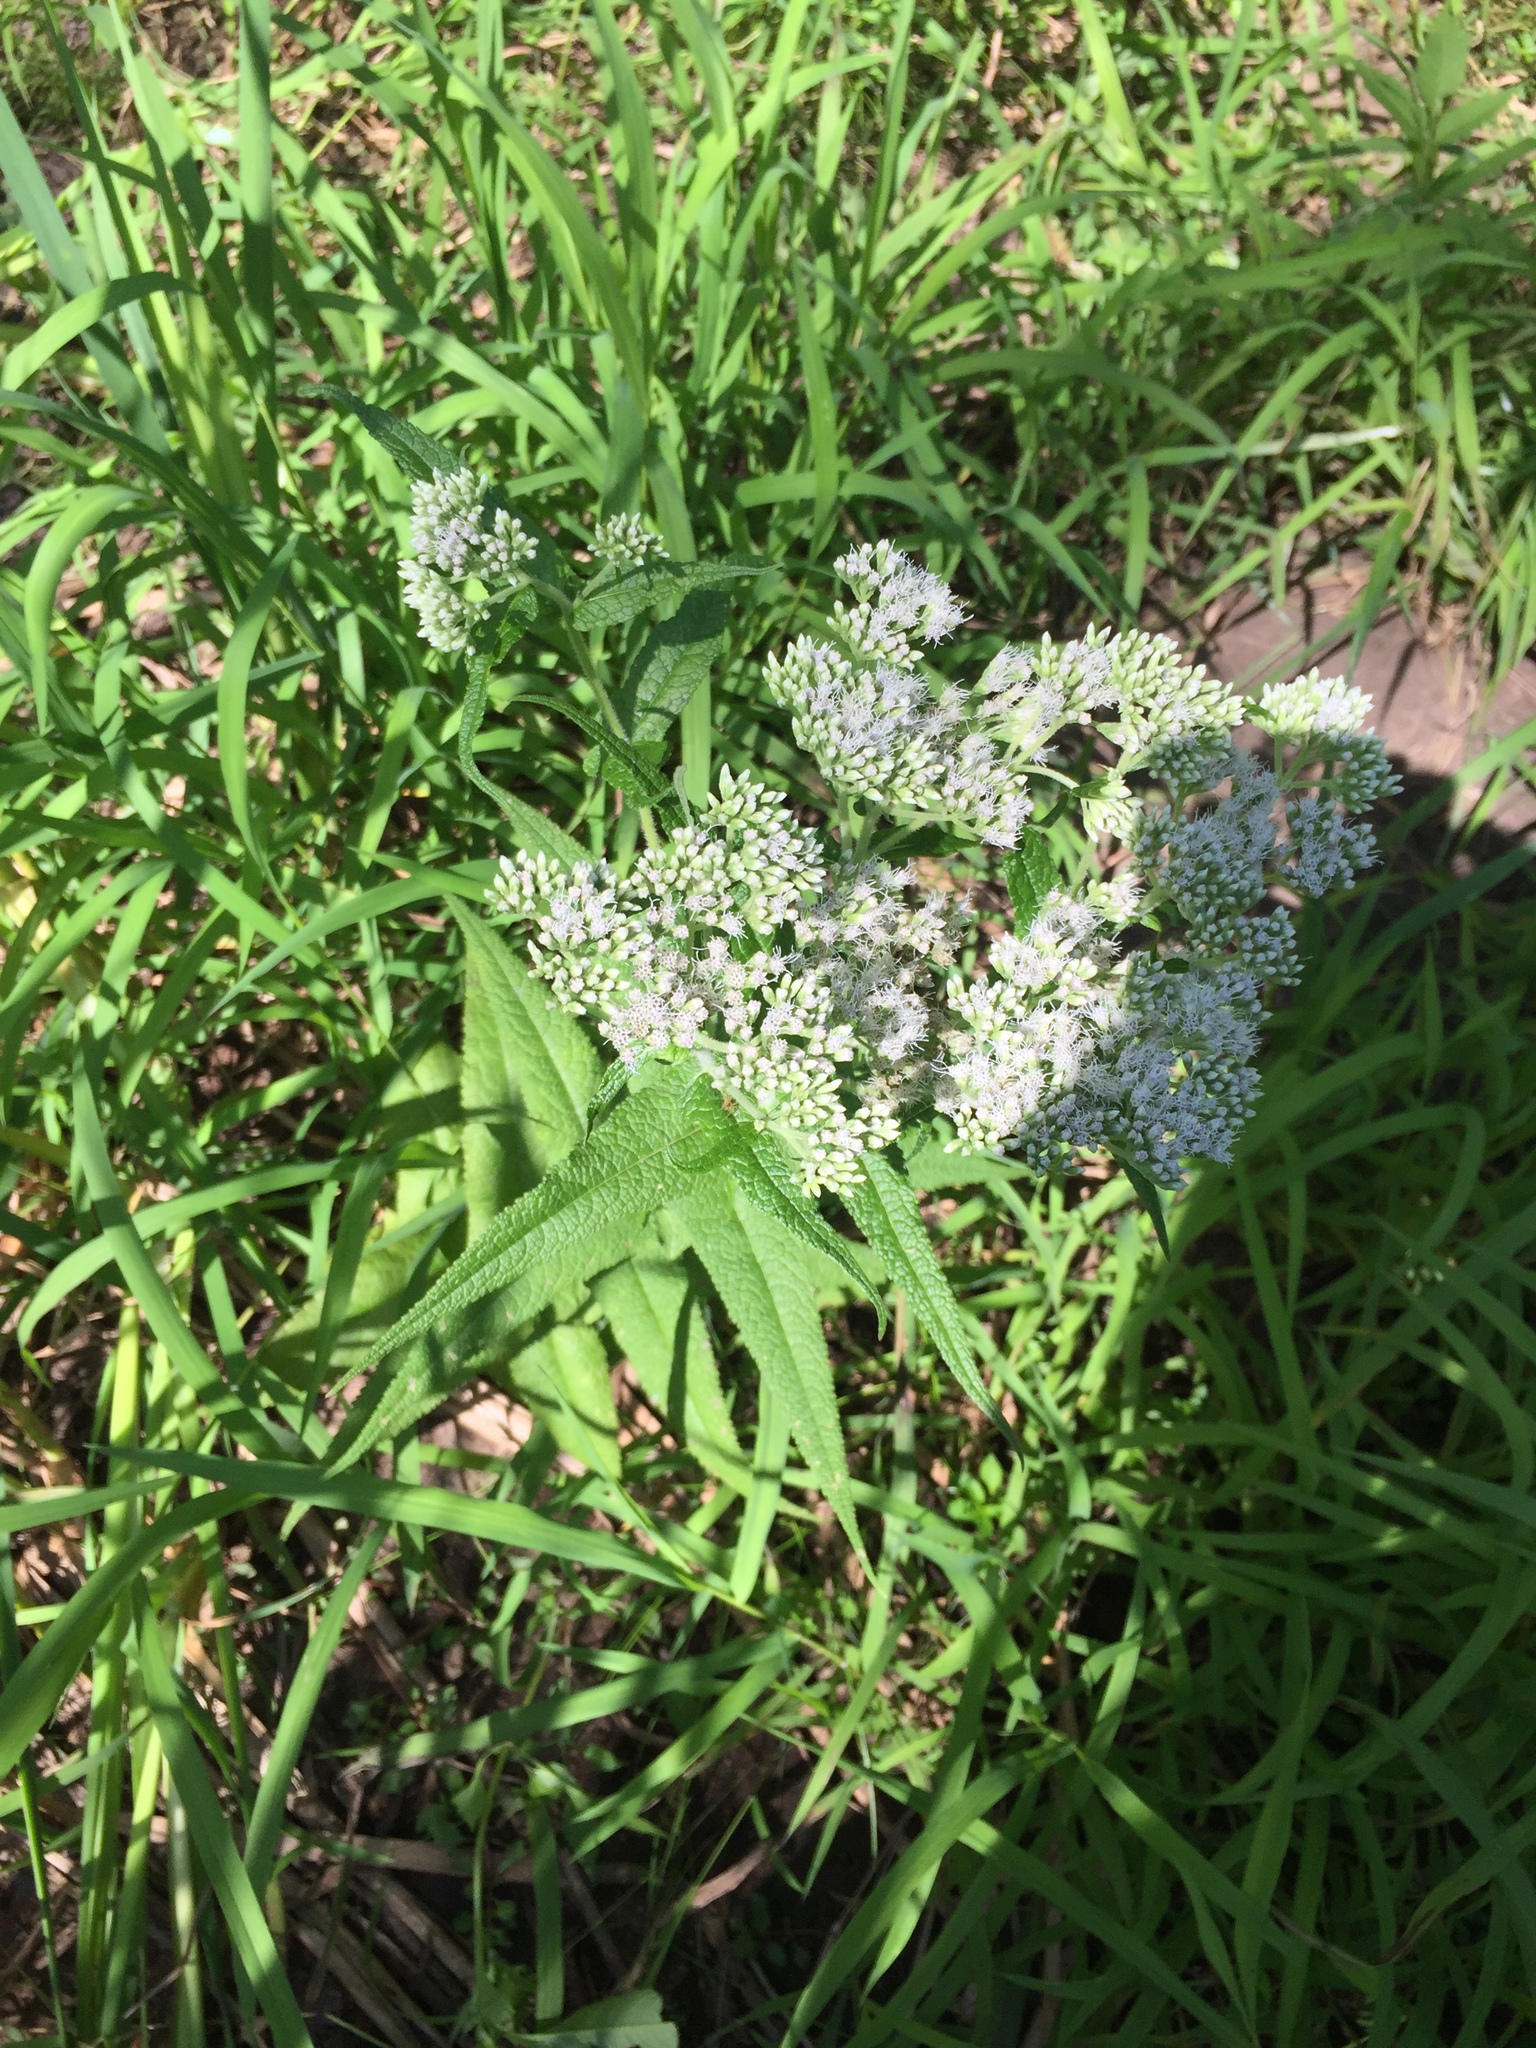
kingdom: Plantae
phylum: Tracheophyta
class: Magnoliopsida
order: Asterales
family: Asteraceae
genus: Eupatorium
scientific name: Eupatorium perfoliatum
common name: Boneset
